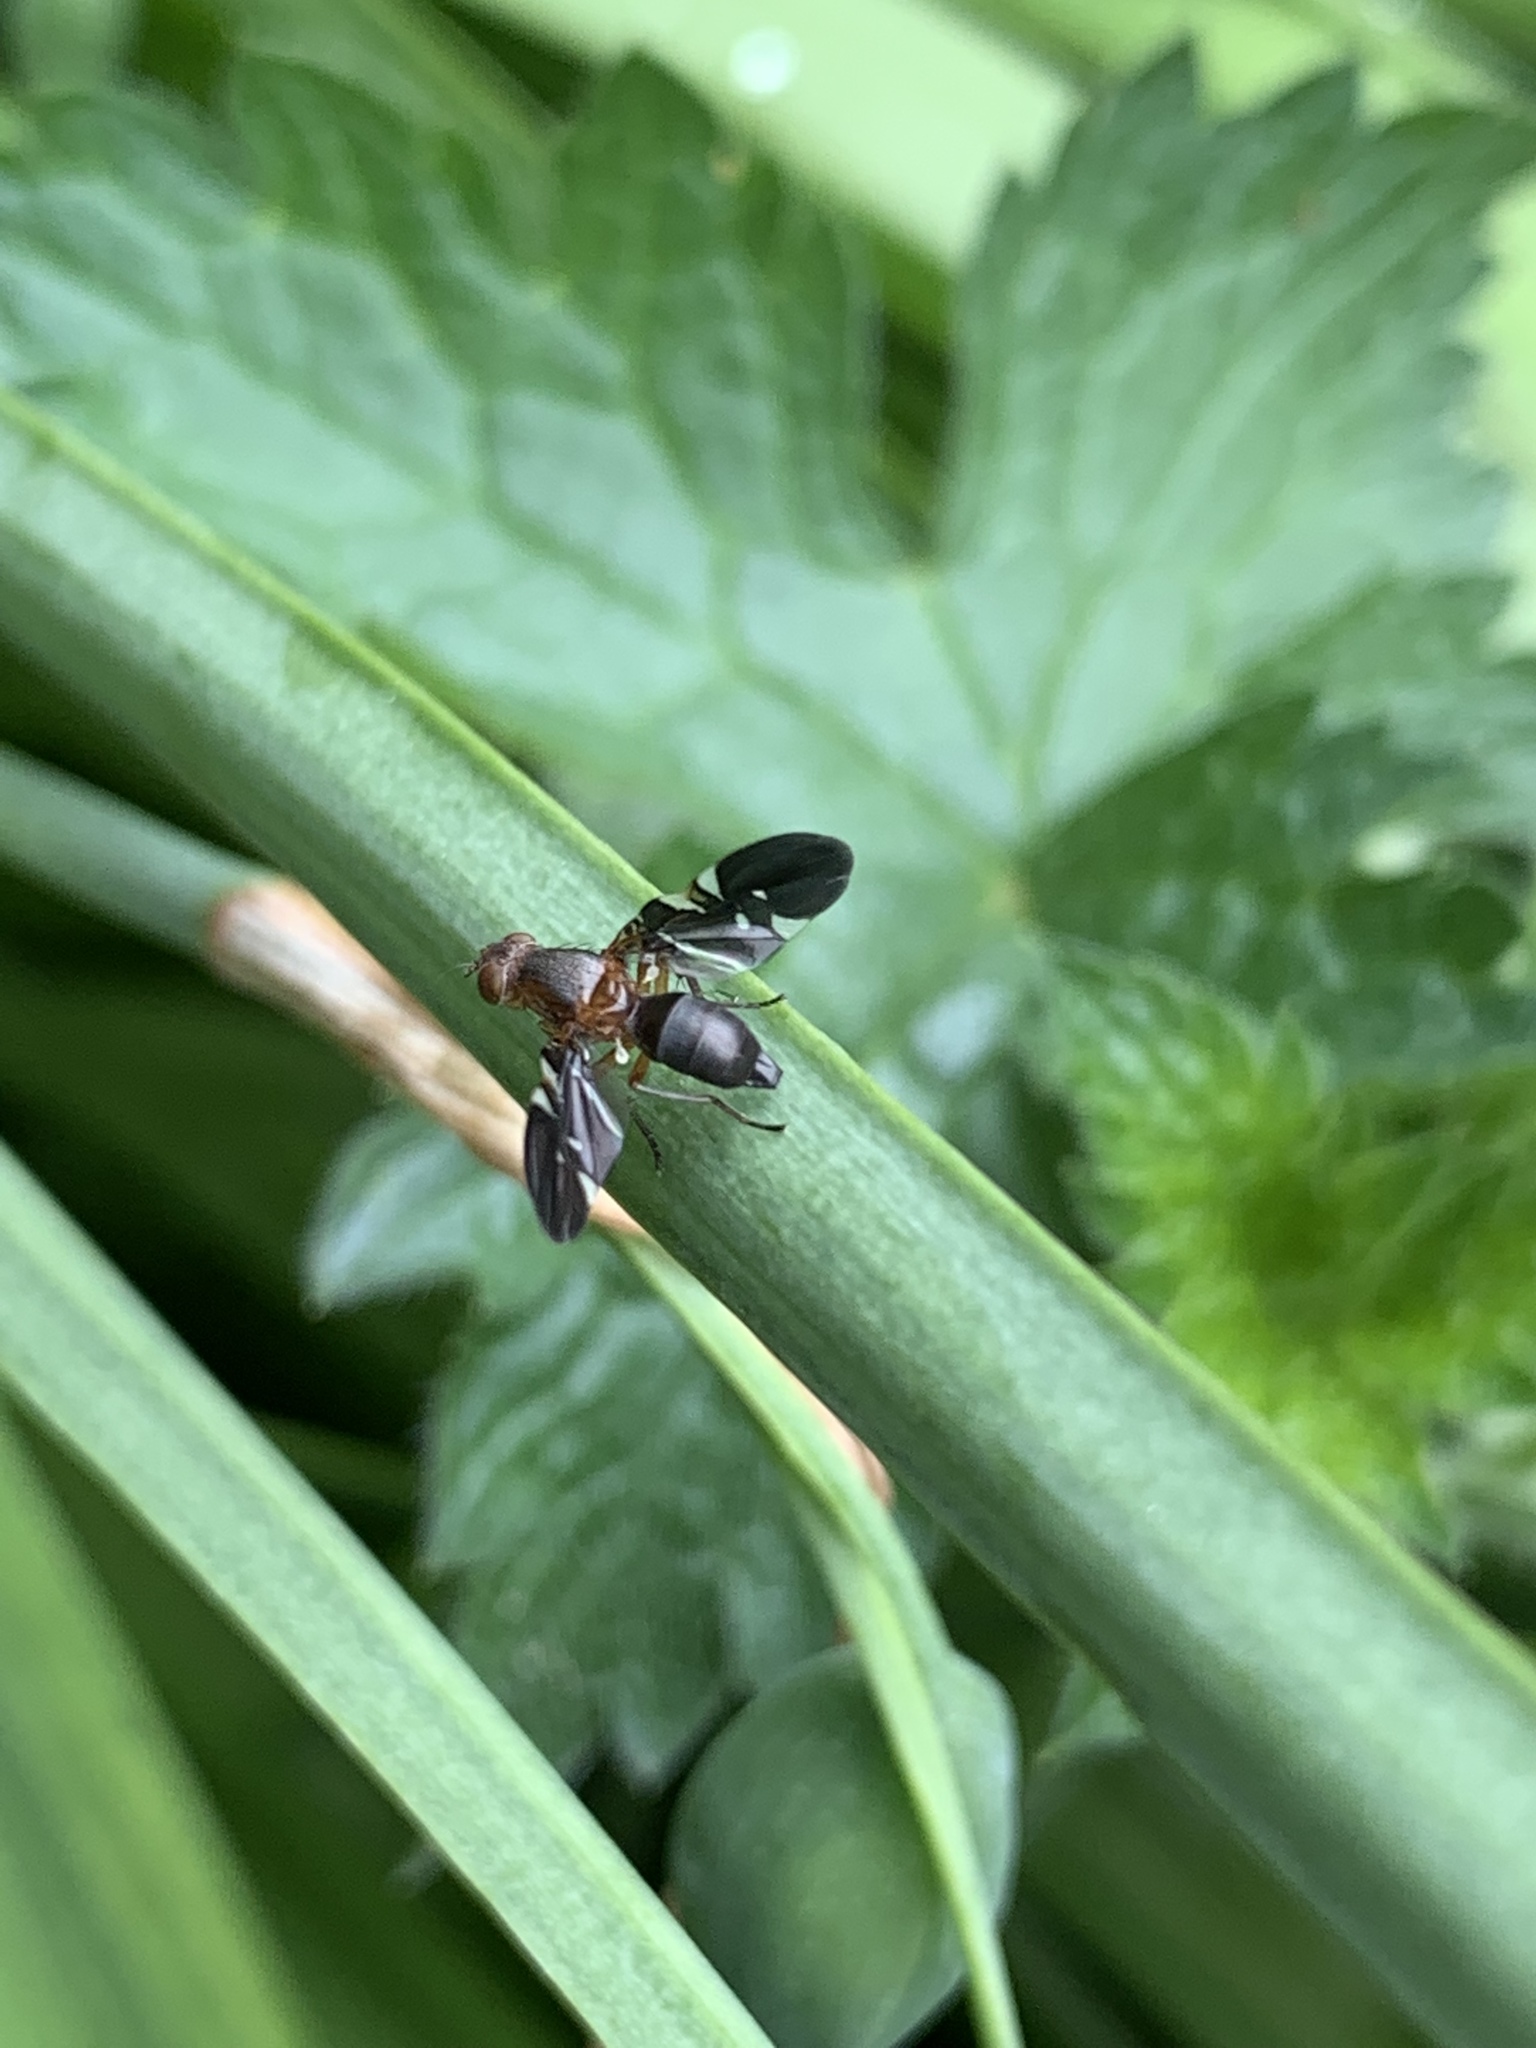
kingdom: Animalia
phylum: Arthropoda
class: Insecta
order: Diptera
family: Ulidiidae
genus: Delphinia
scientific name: Delphinia picta
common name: Common picture-winged fly
